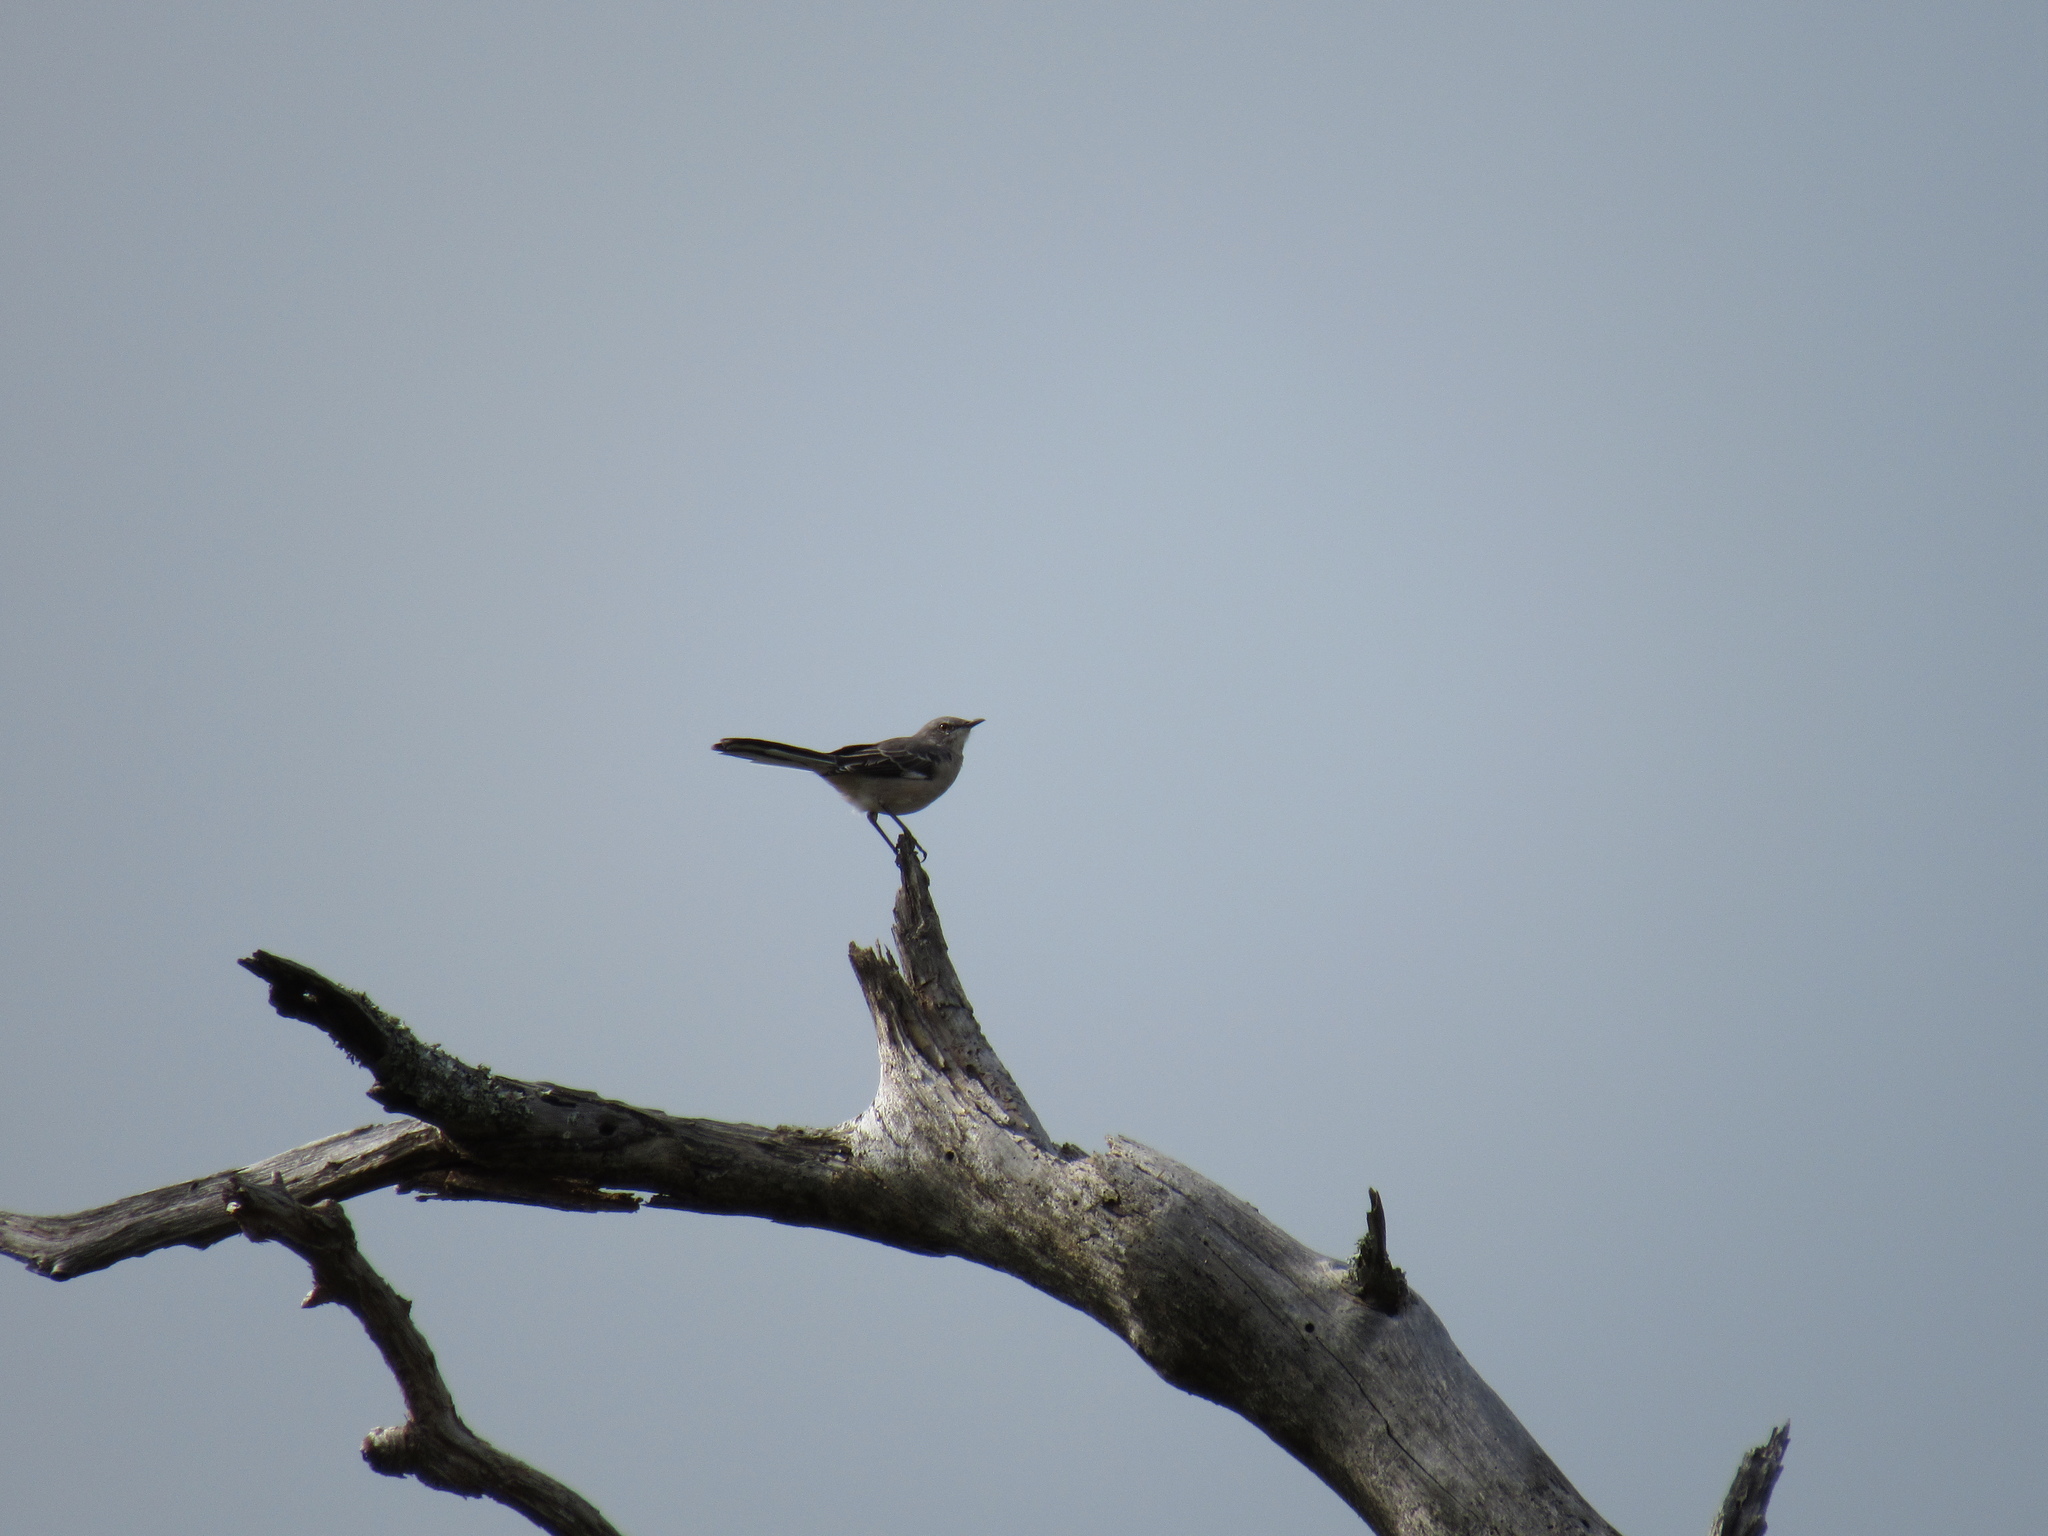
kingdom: Animalia
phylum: Chordata
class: Aves
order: Passeriformes
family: Mimidae
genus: Mimus
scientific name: Mimus polyglottos
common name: Northern mockingbird
